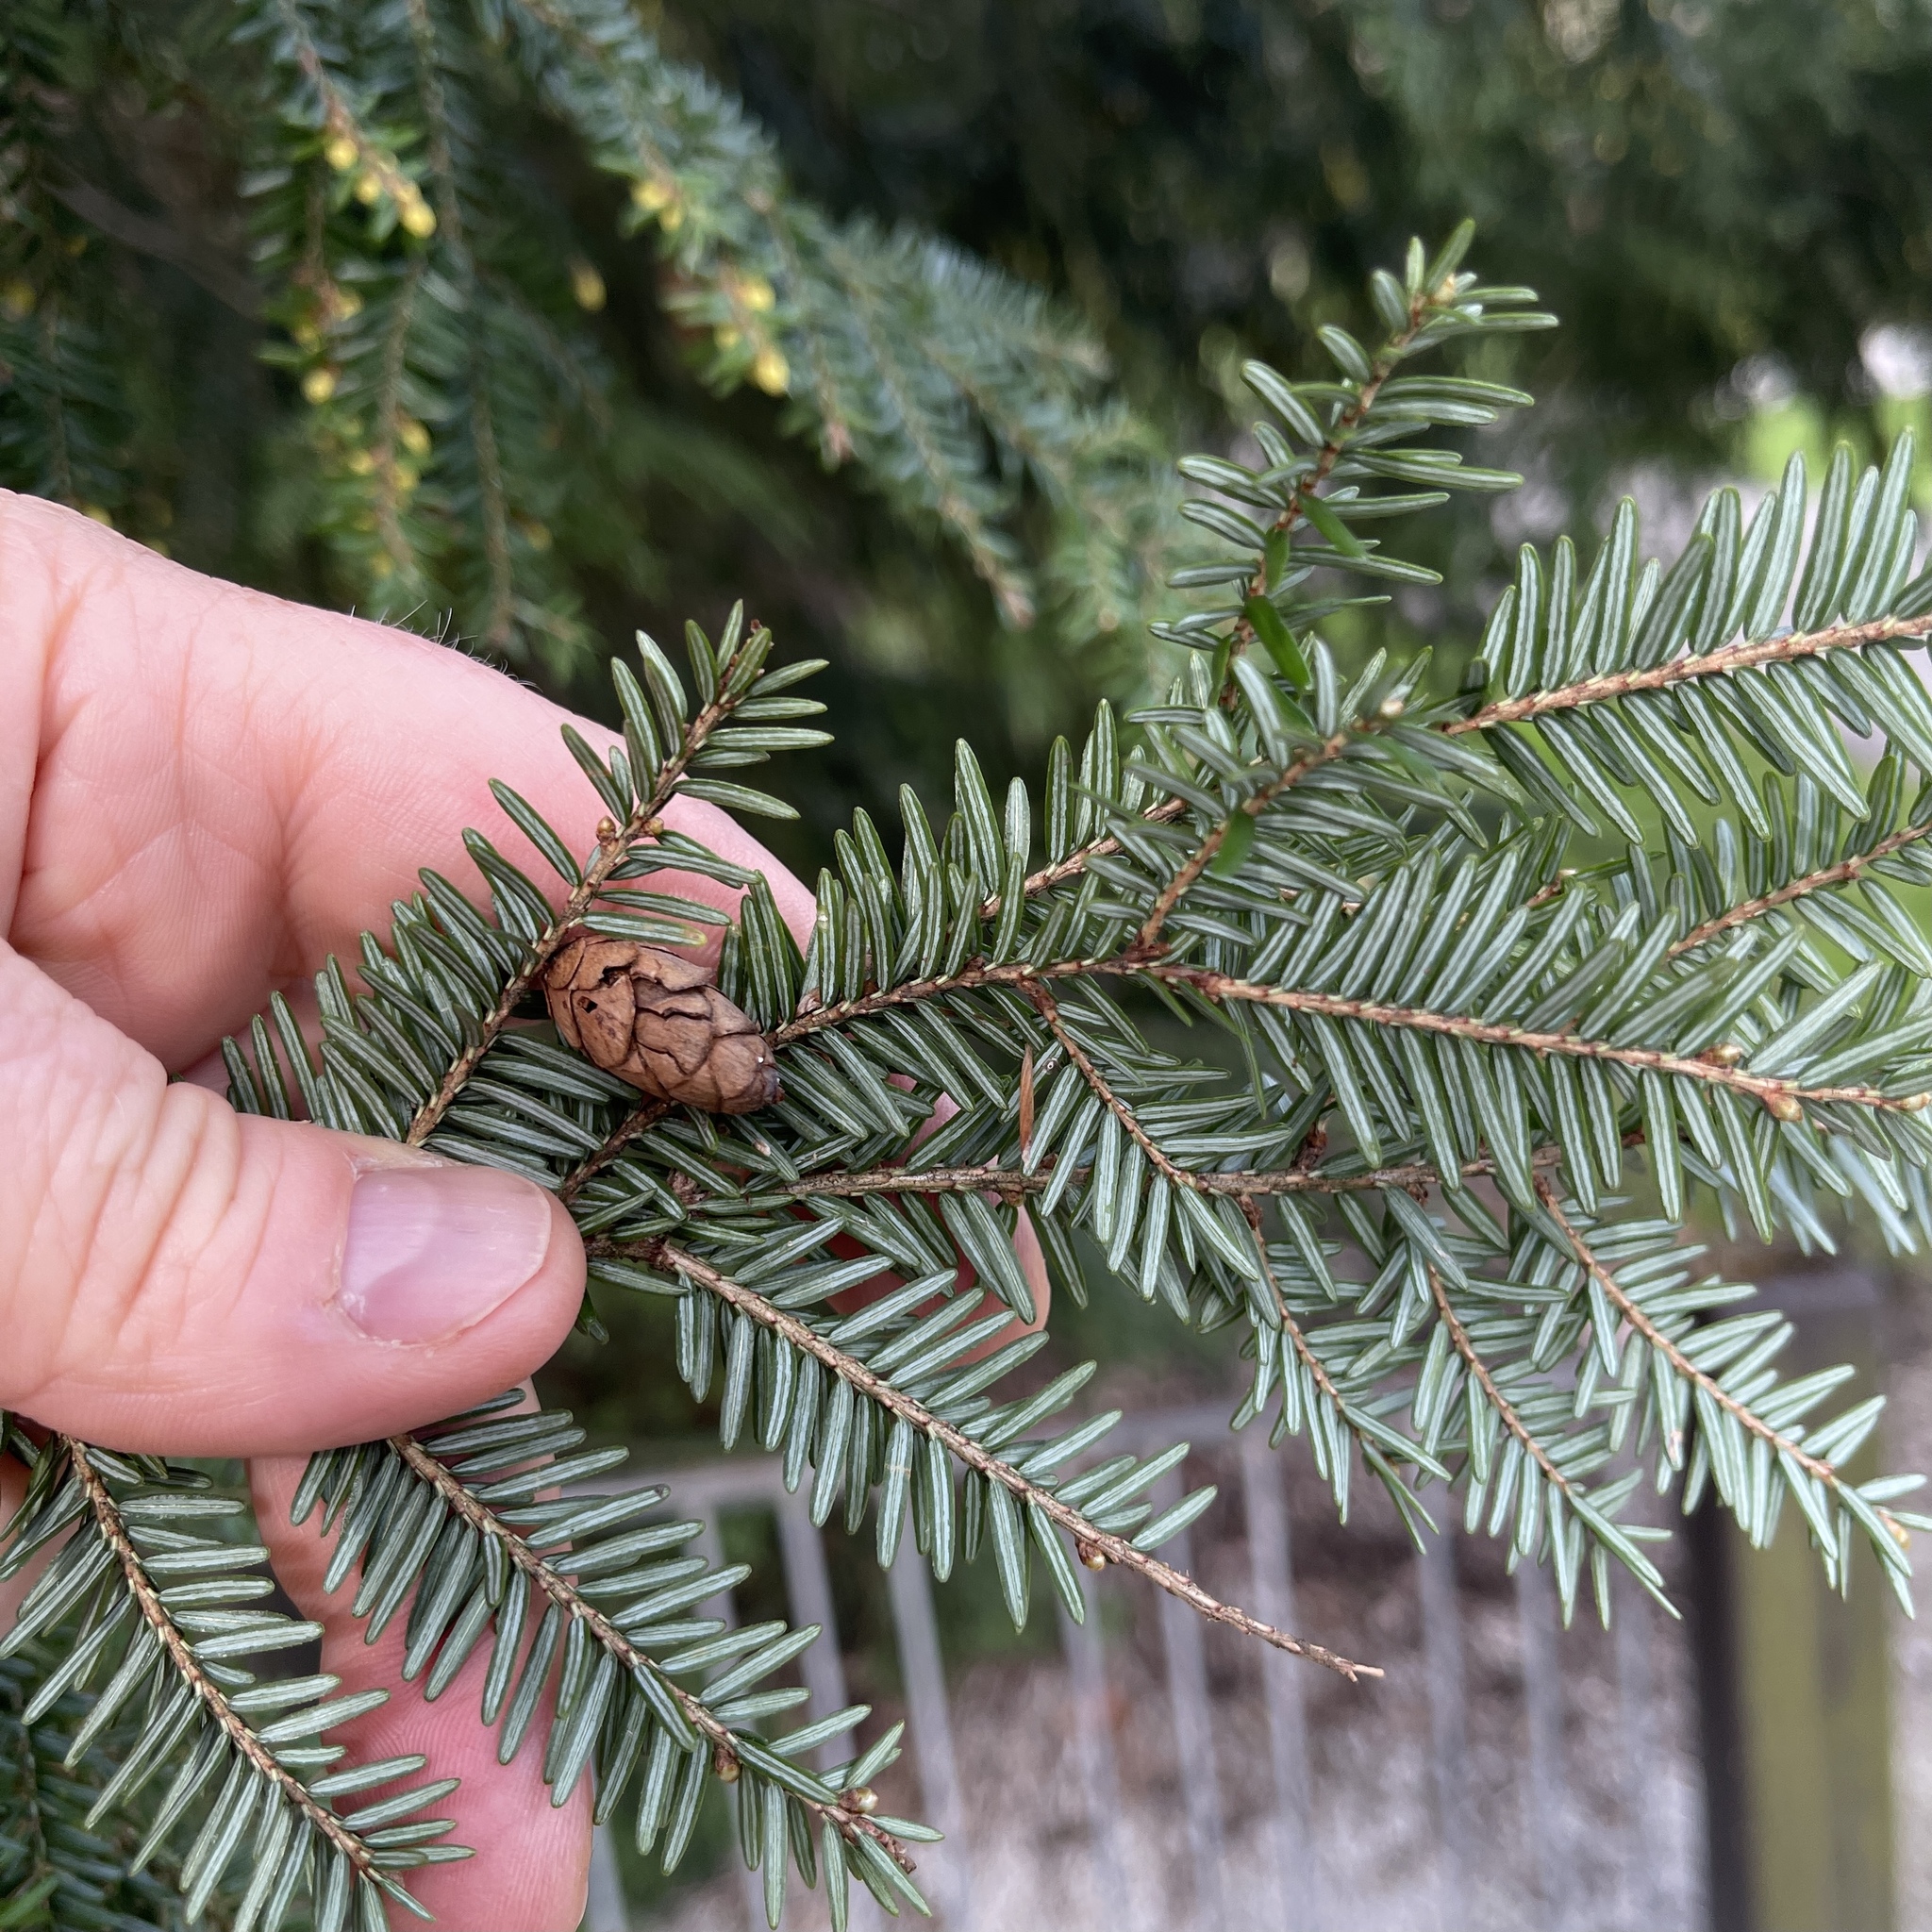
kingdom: Plantae
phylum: Tracheophyta
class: Pinopsida
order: Pinales
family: Pinaceae
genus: Tsuga
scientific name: Tsuga canadensis
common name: Eastern hemlock
